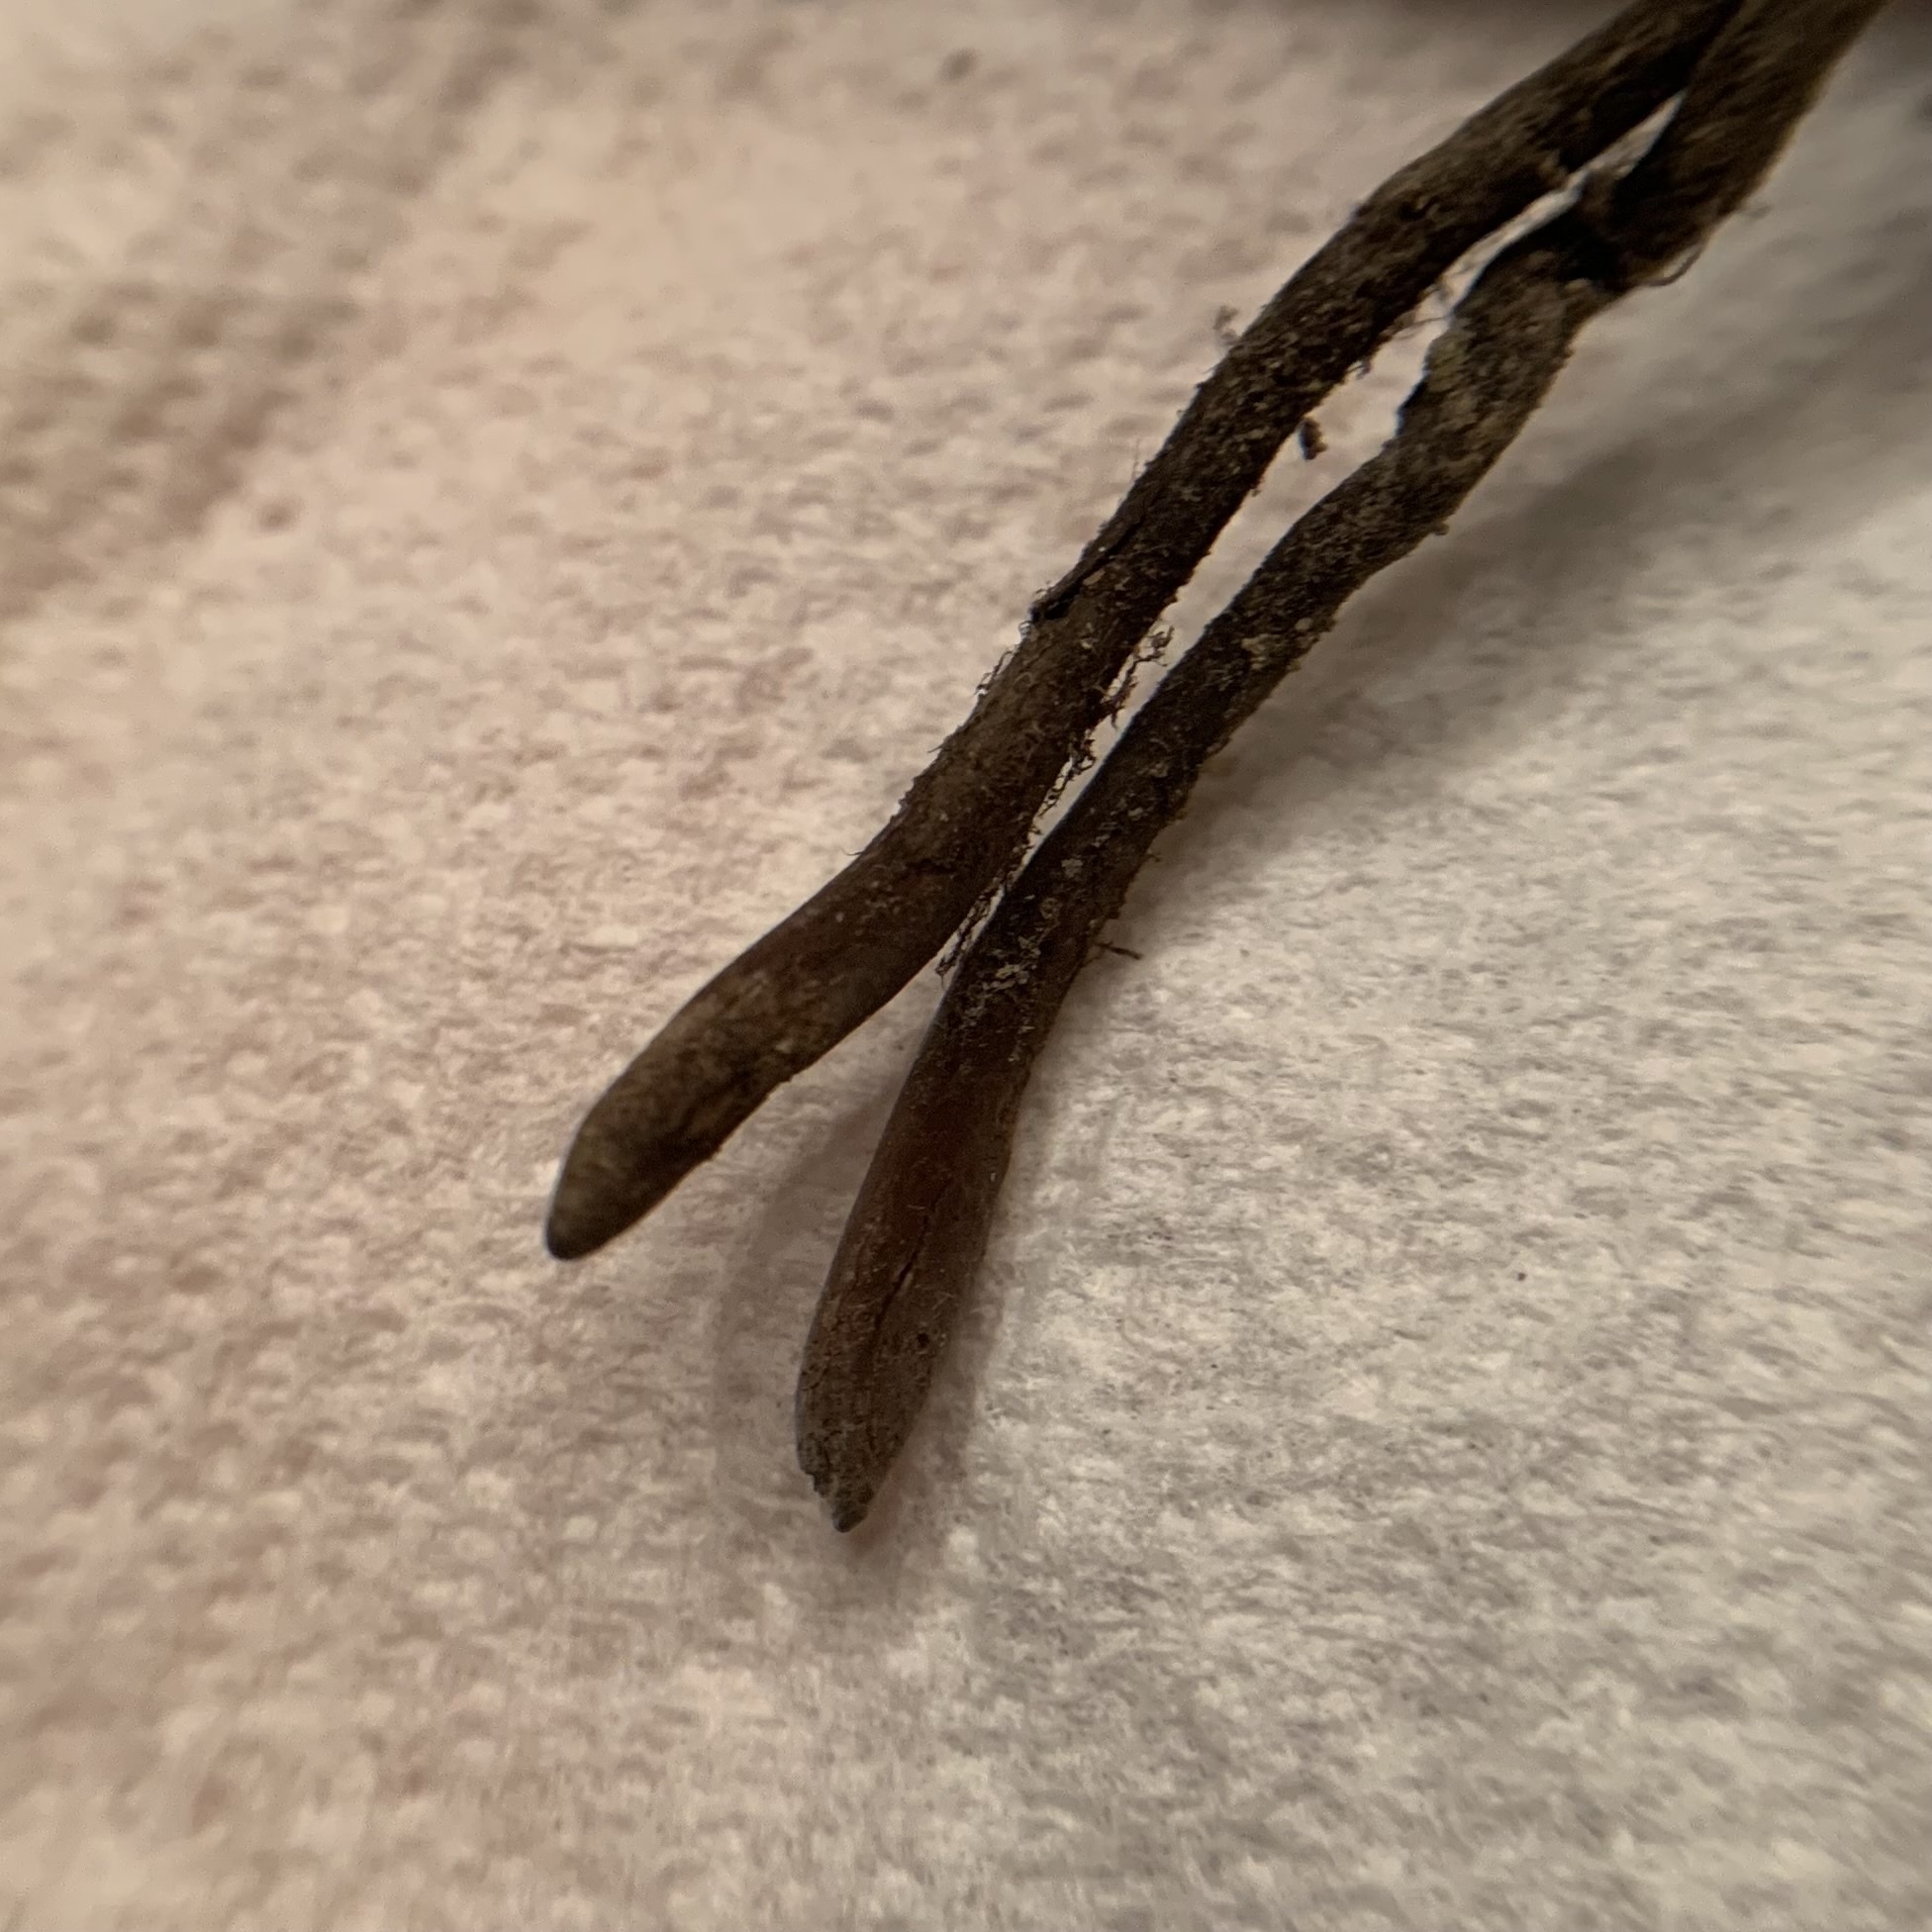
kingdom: Fungi
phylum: Ascomycota
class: Sordariomycetes
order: Hypocreales
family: Ophiocordycipitaceae
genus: Ophiocordyceps
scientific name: Ophiocordyceps ravenelii
